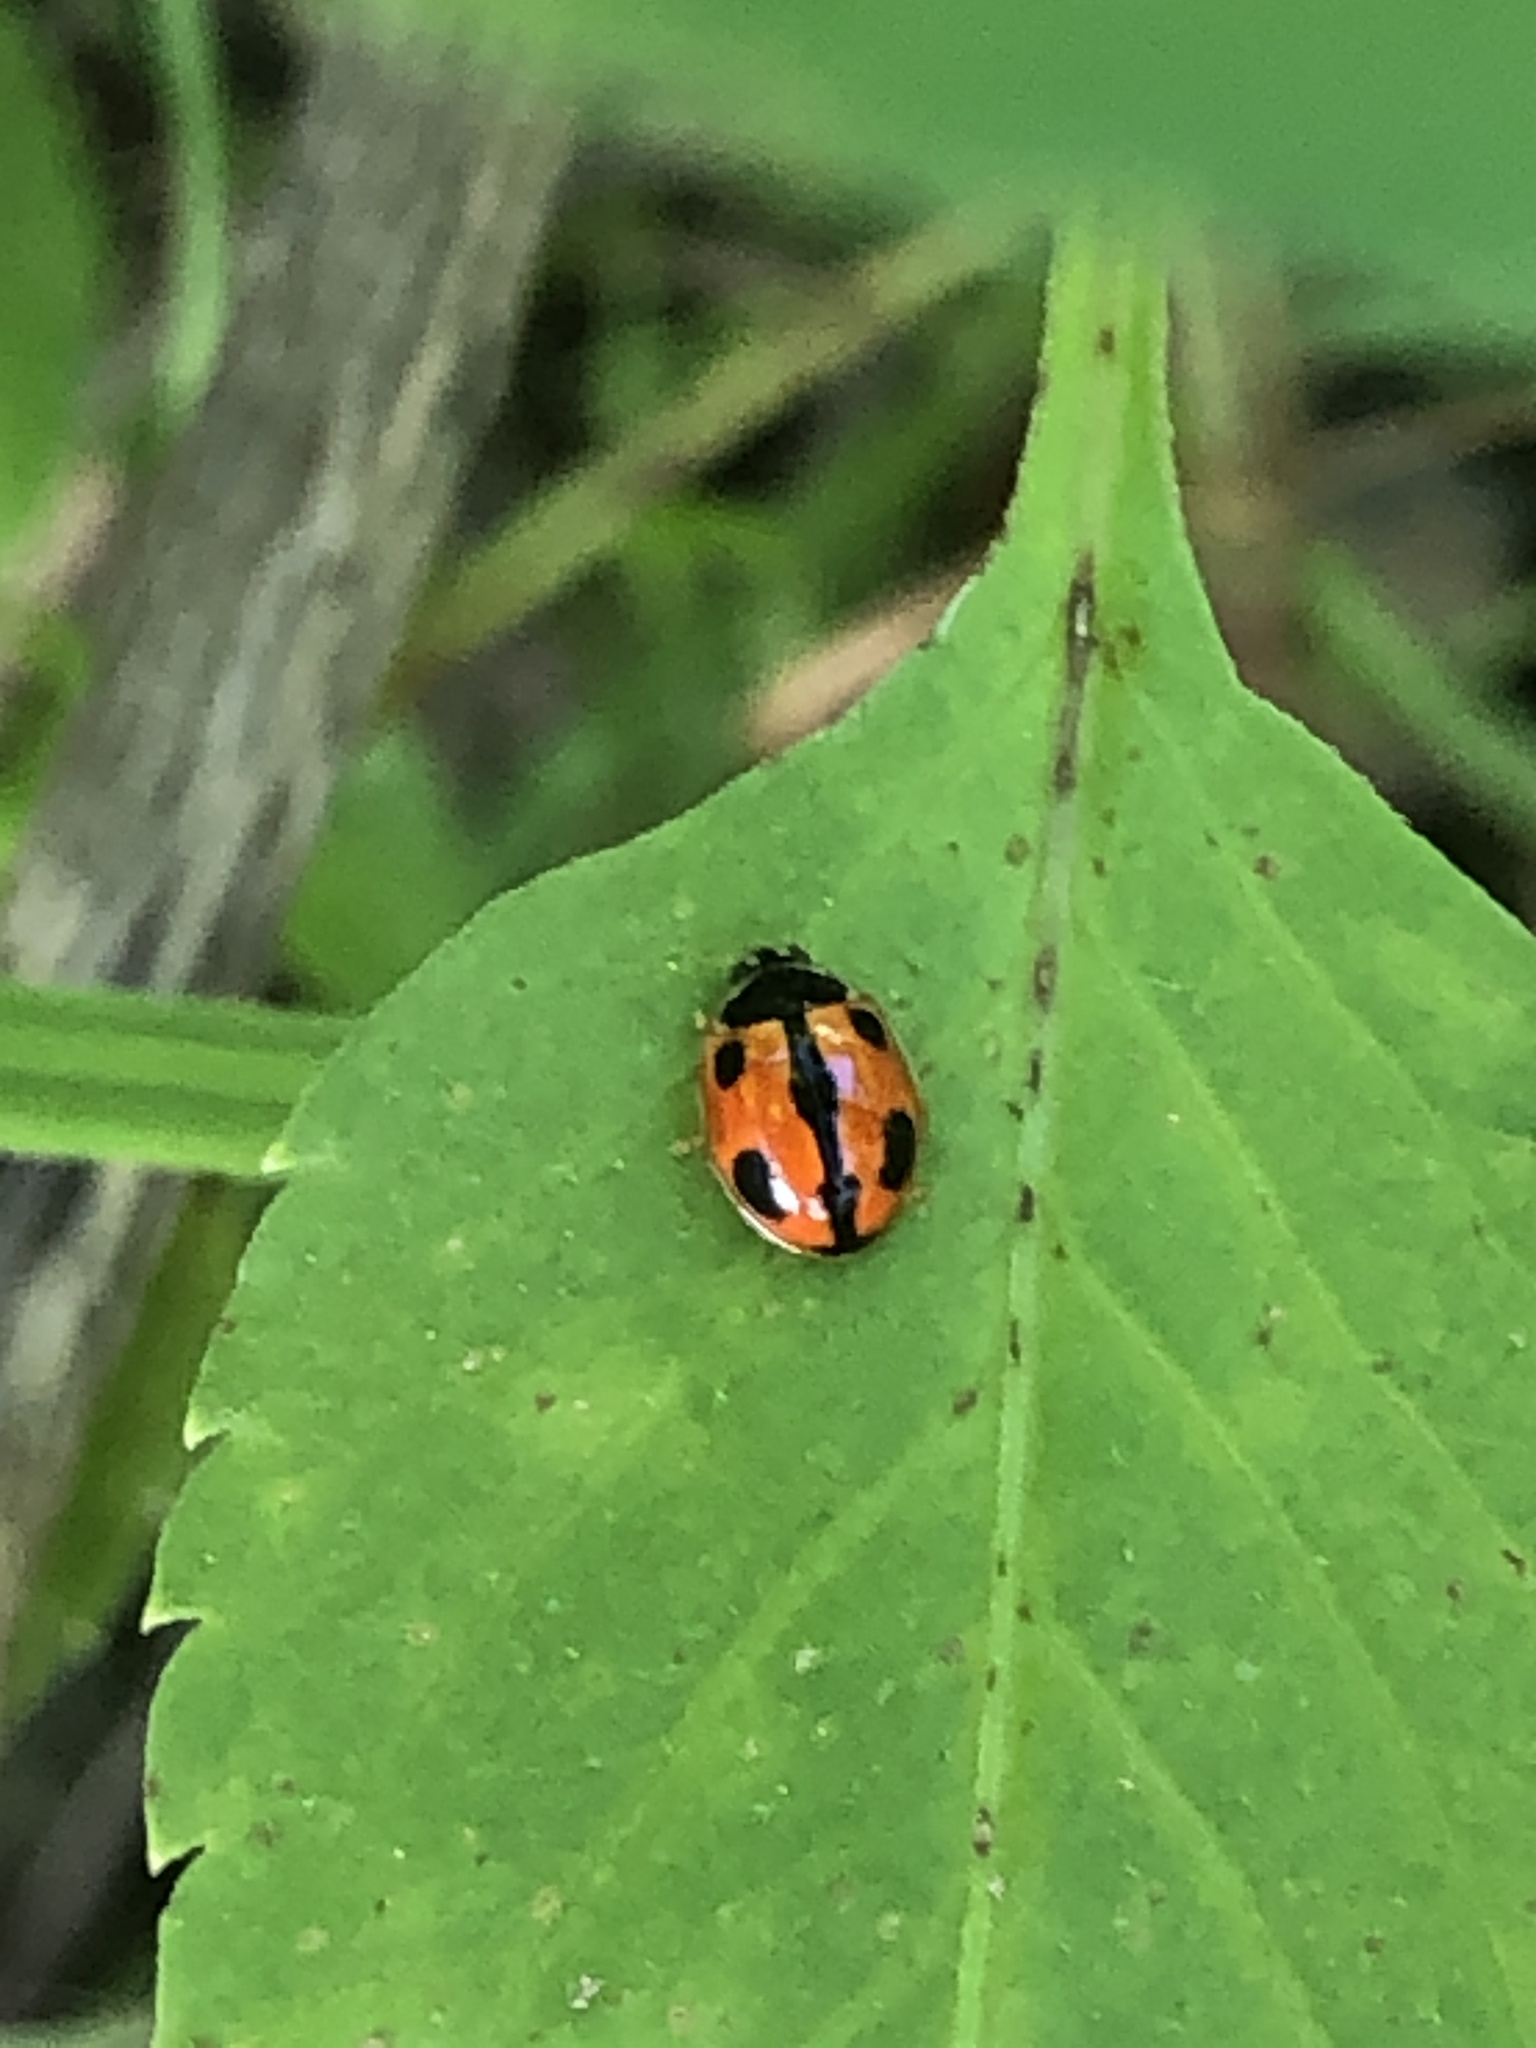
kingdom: Animalia
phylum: Arthropoda
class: Insecta
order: Coleoptera
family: Coccinellidae
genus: Propylea
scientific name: Propylea japonica
